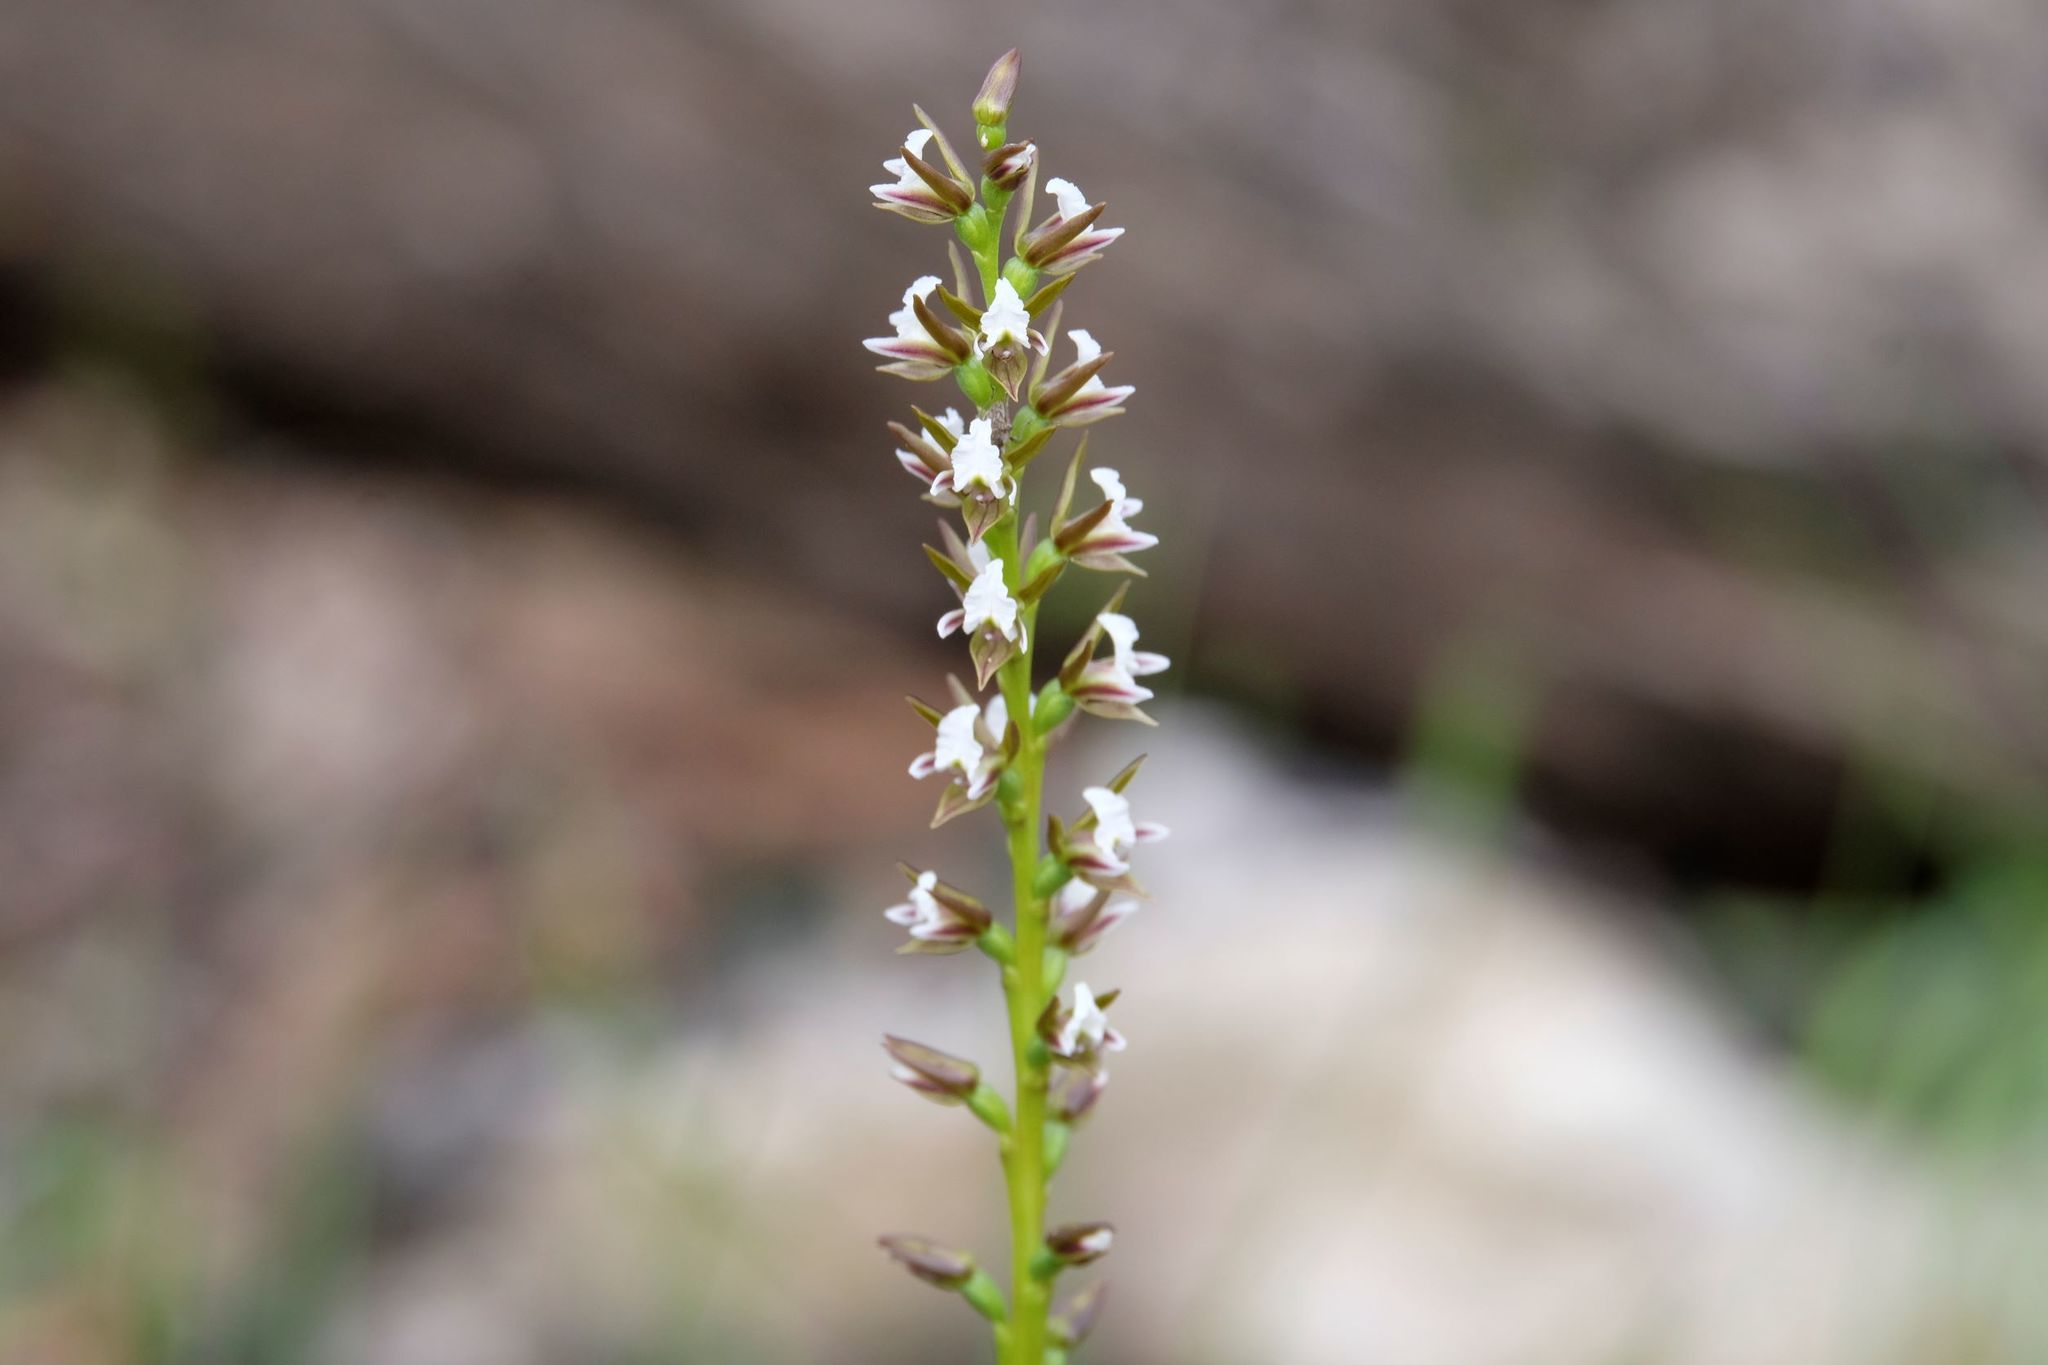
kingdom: Plantae
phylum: Tracheophyta
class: Liliopsida
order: Asparagales
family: Orchidaceae
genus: Prasophyllum
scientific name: Prasophyllum odoratum
